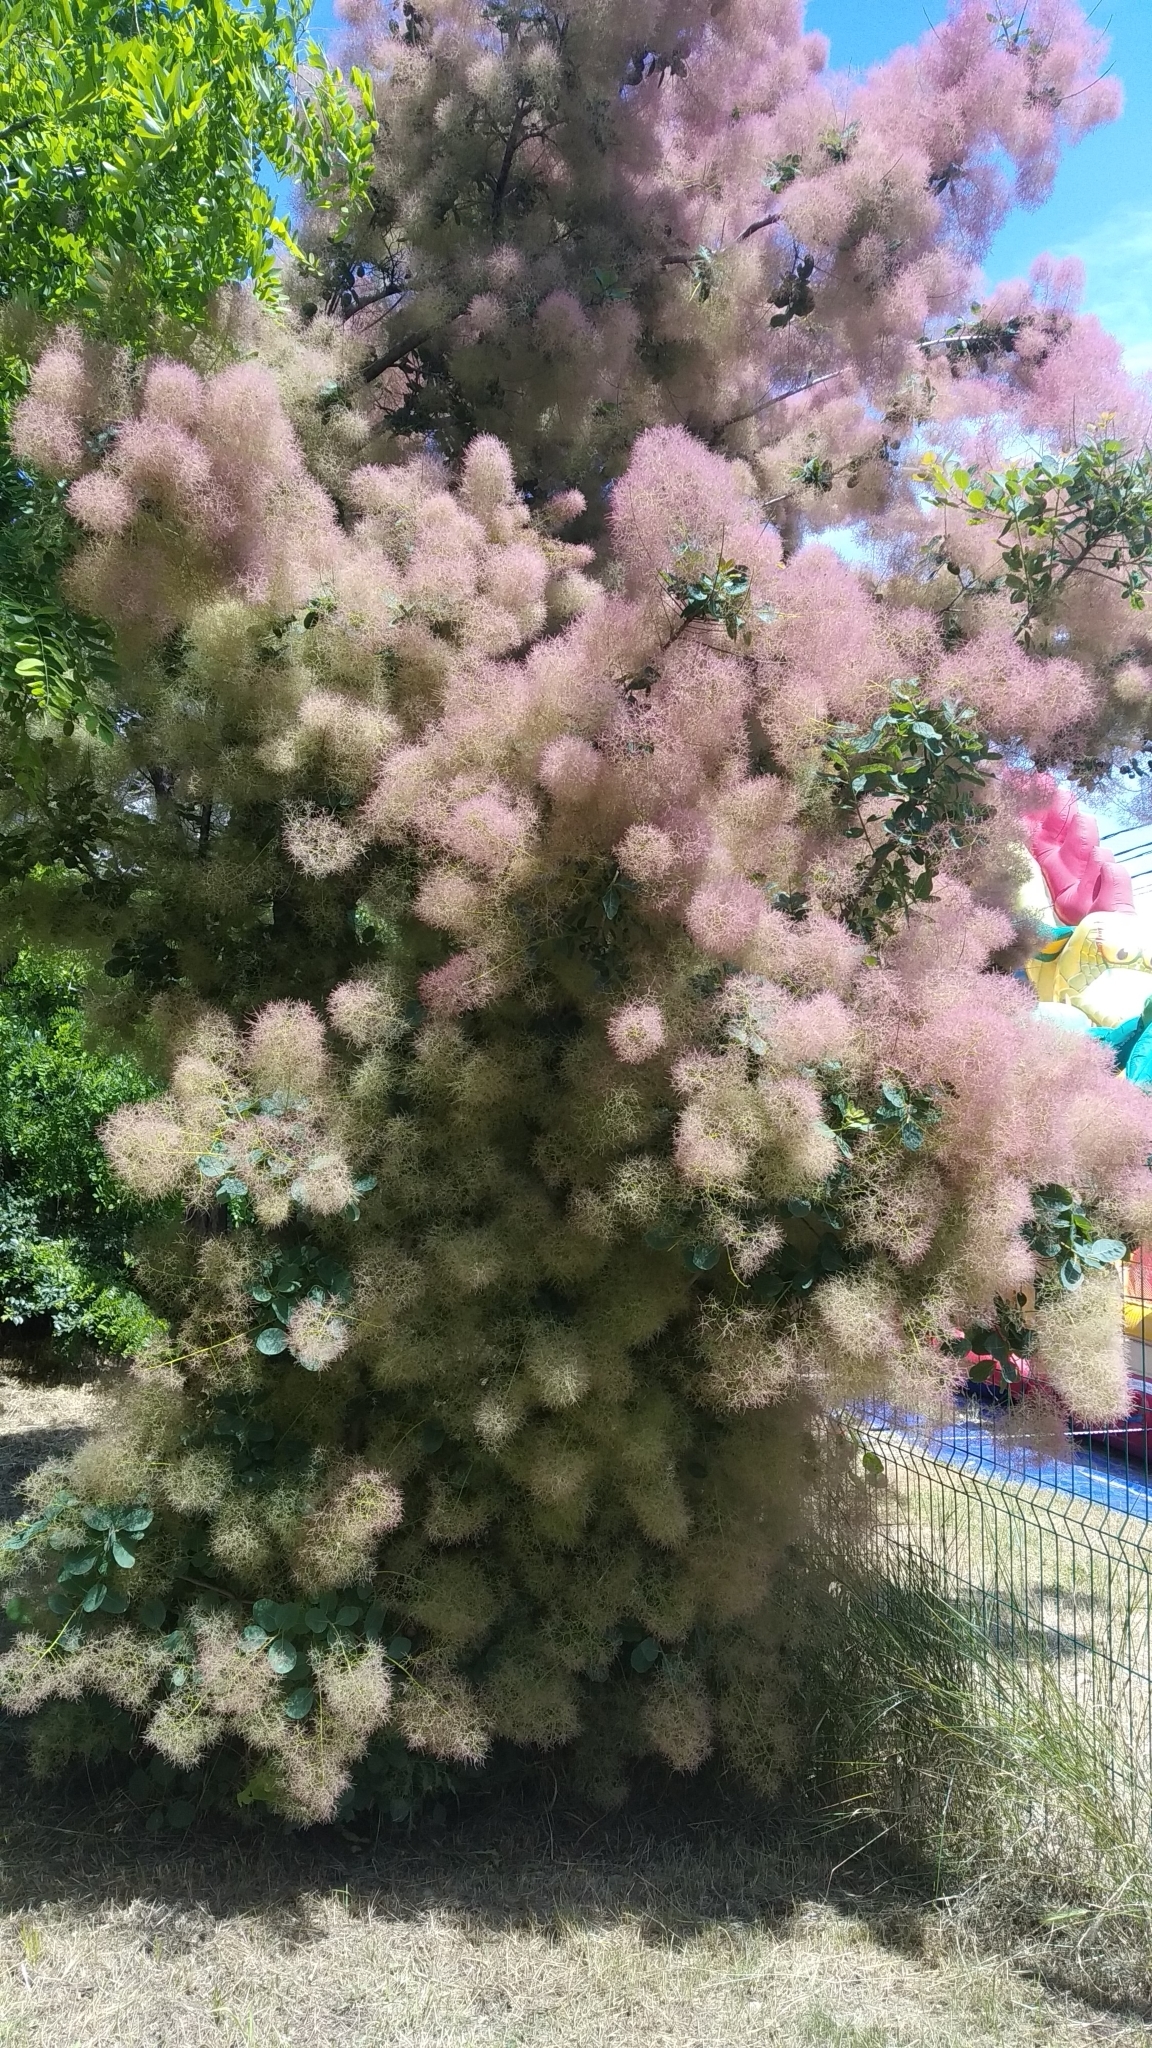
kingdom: Plantae
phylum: Tracheophyta
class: Magnoliopsida
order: Sapindales
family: Anacardiaceae
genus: Cotinus
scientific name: Cotinus coggygria
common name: Smoke-tree
